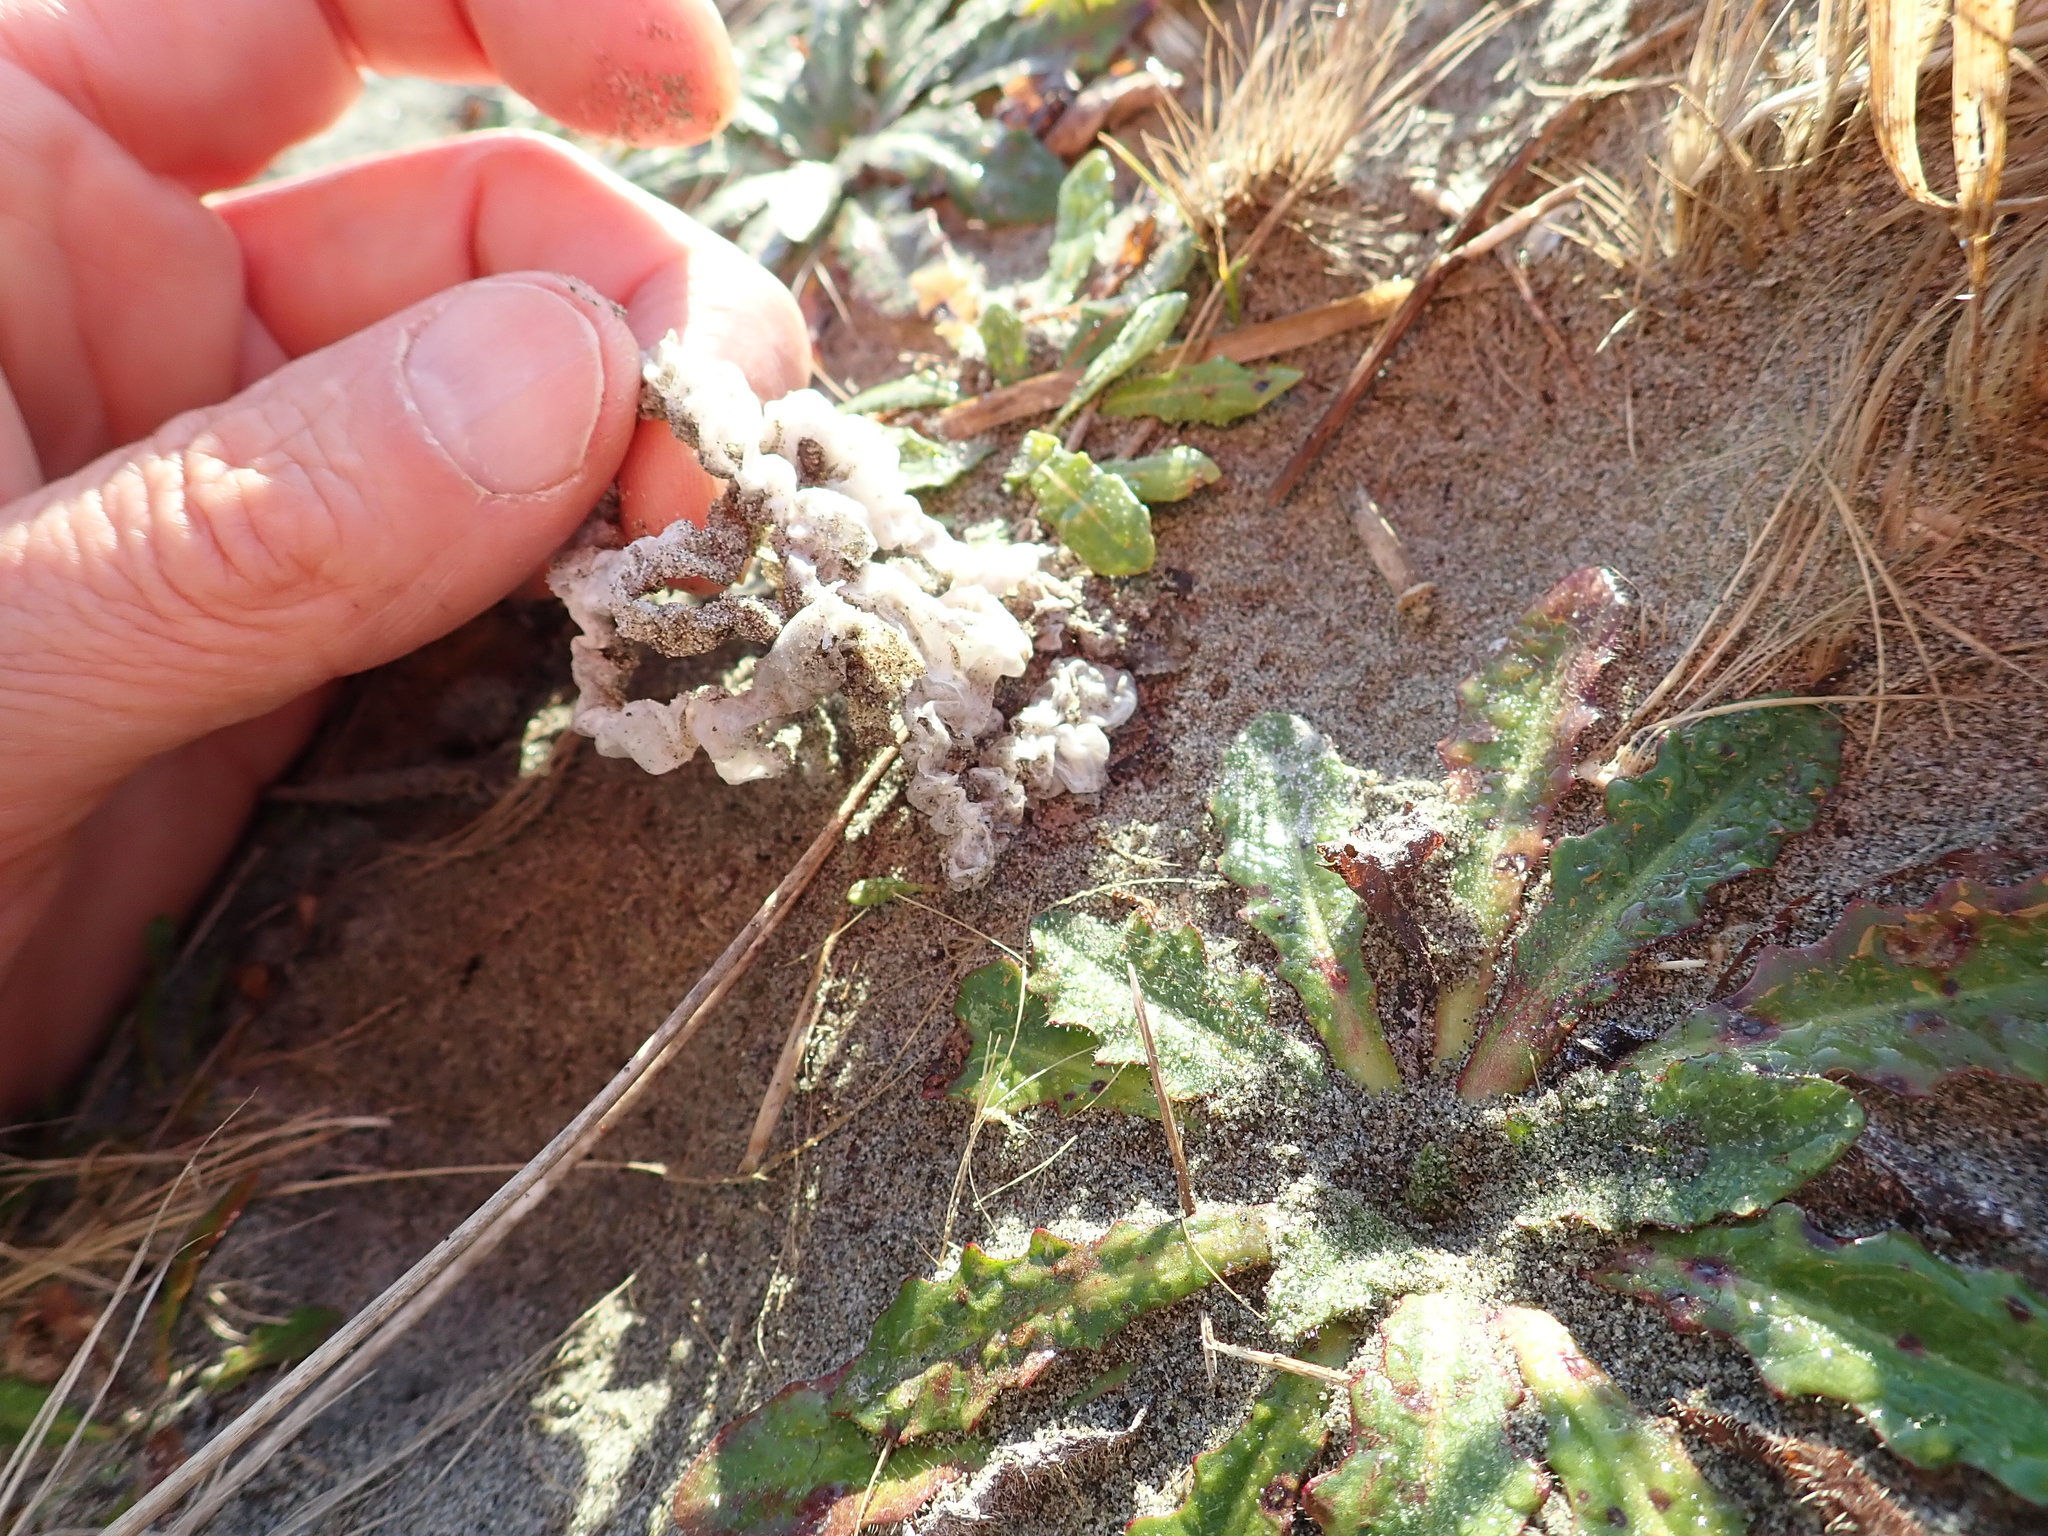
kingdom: Fungi
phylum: Basidiomycota
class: Agaricomycetes
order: Phallales
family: Phallaceae
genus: Ileodictyon
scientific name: Ileodictyon cibarium
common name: Basket fungus
